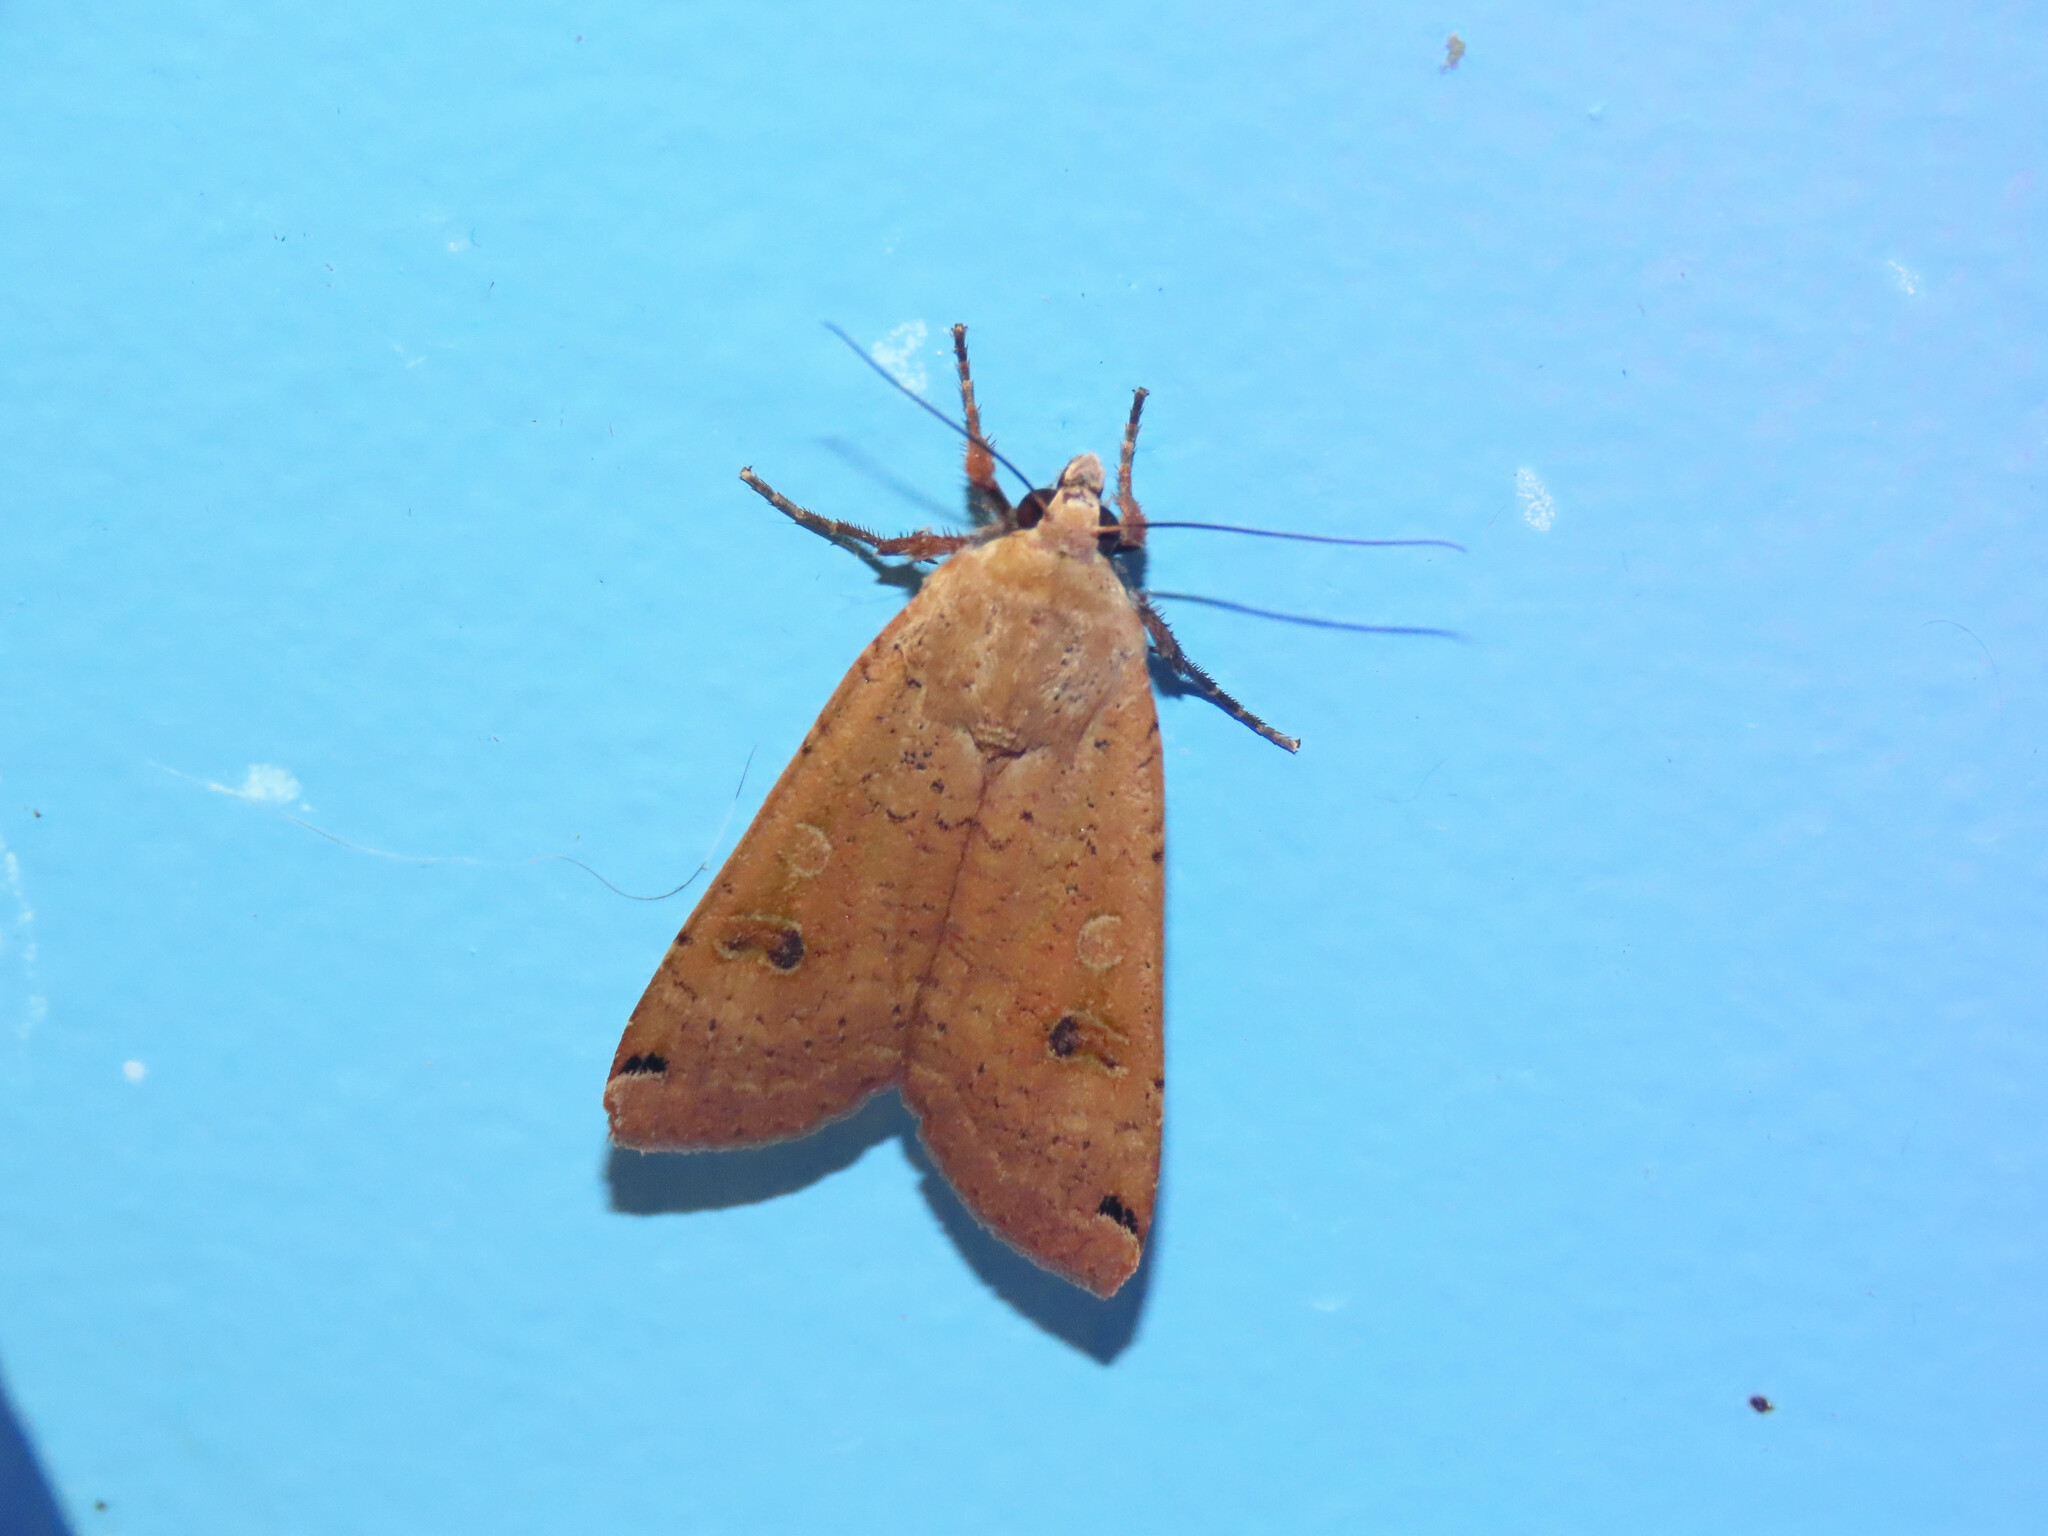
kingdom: Animalia
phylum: Arthropoda
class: Insecta
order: Lepidoptera
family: Noctuidae
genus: Noctua
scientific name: Noctua pronuba
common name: Large yellow underwing
